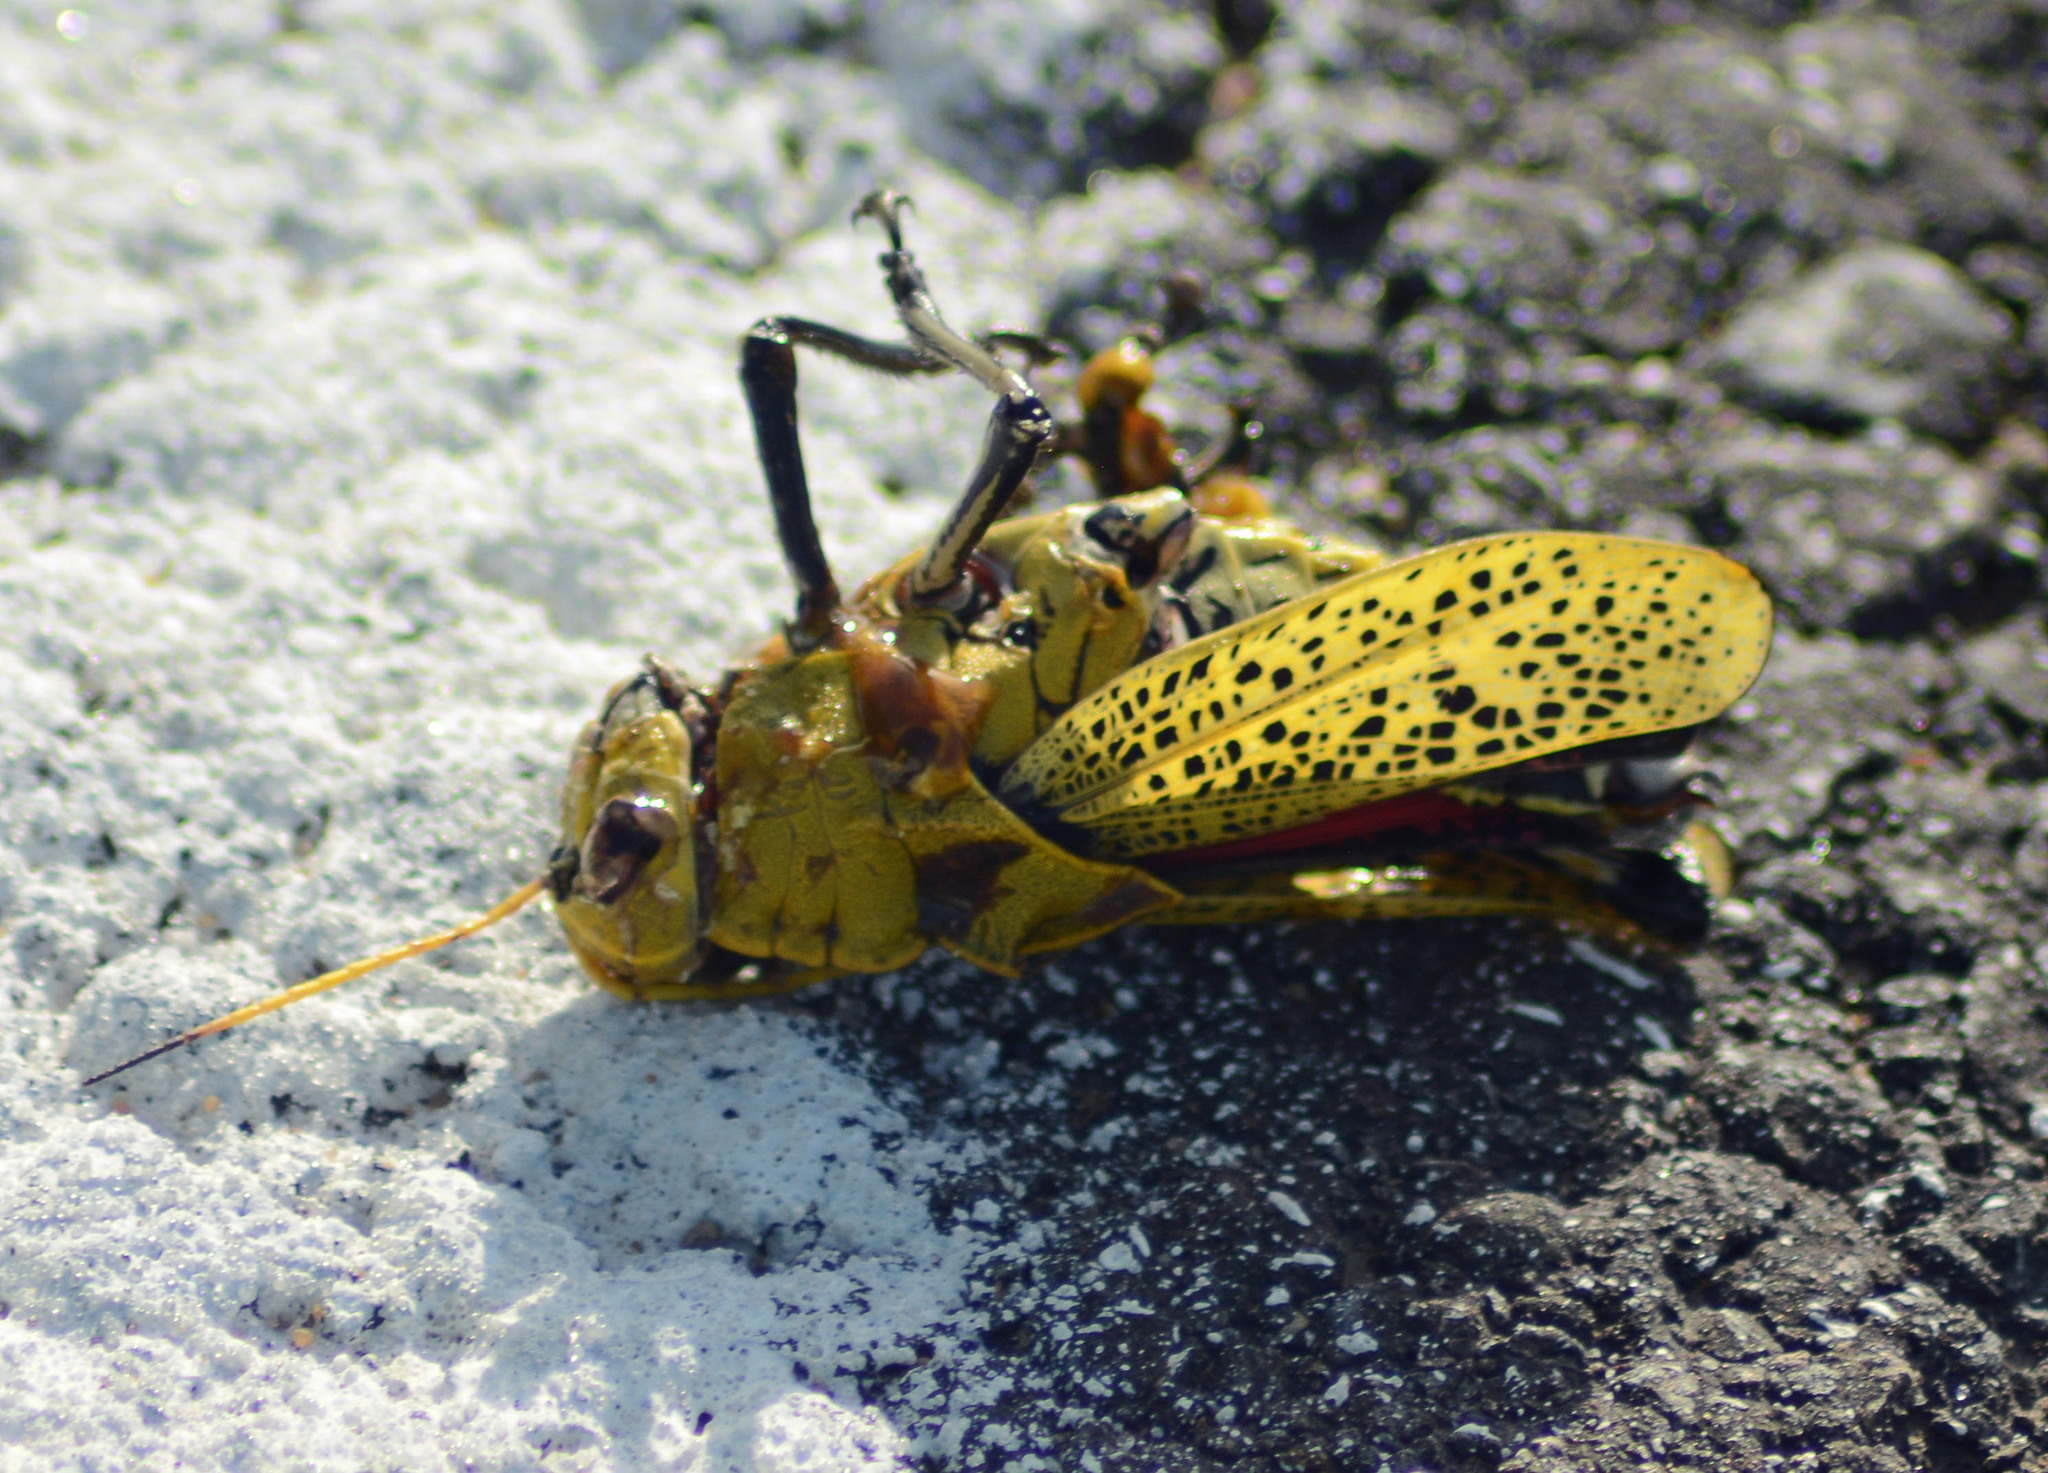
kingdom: Animalia
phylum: Arthropoda
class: Insecta
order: Orthoptera
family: Romaleidae
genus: Romalea
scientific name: Romalea
